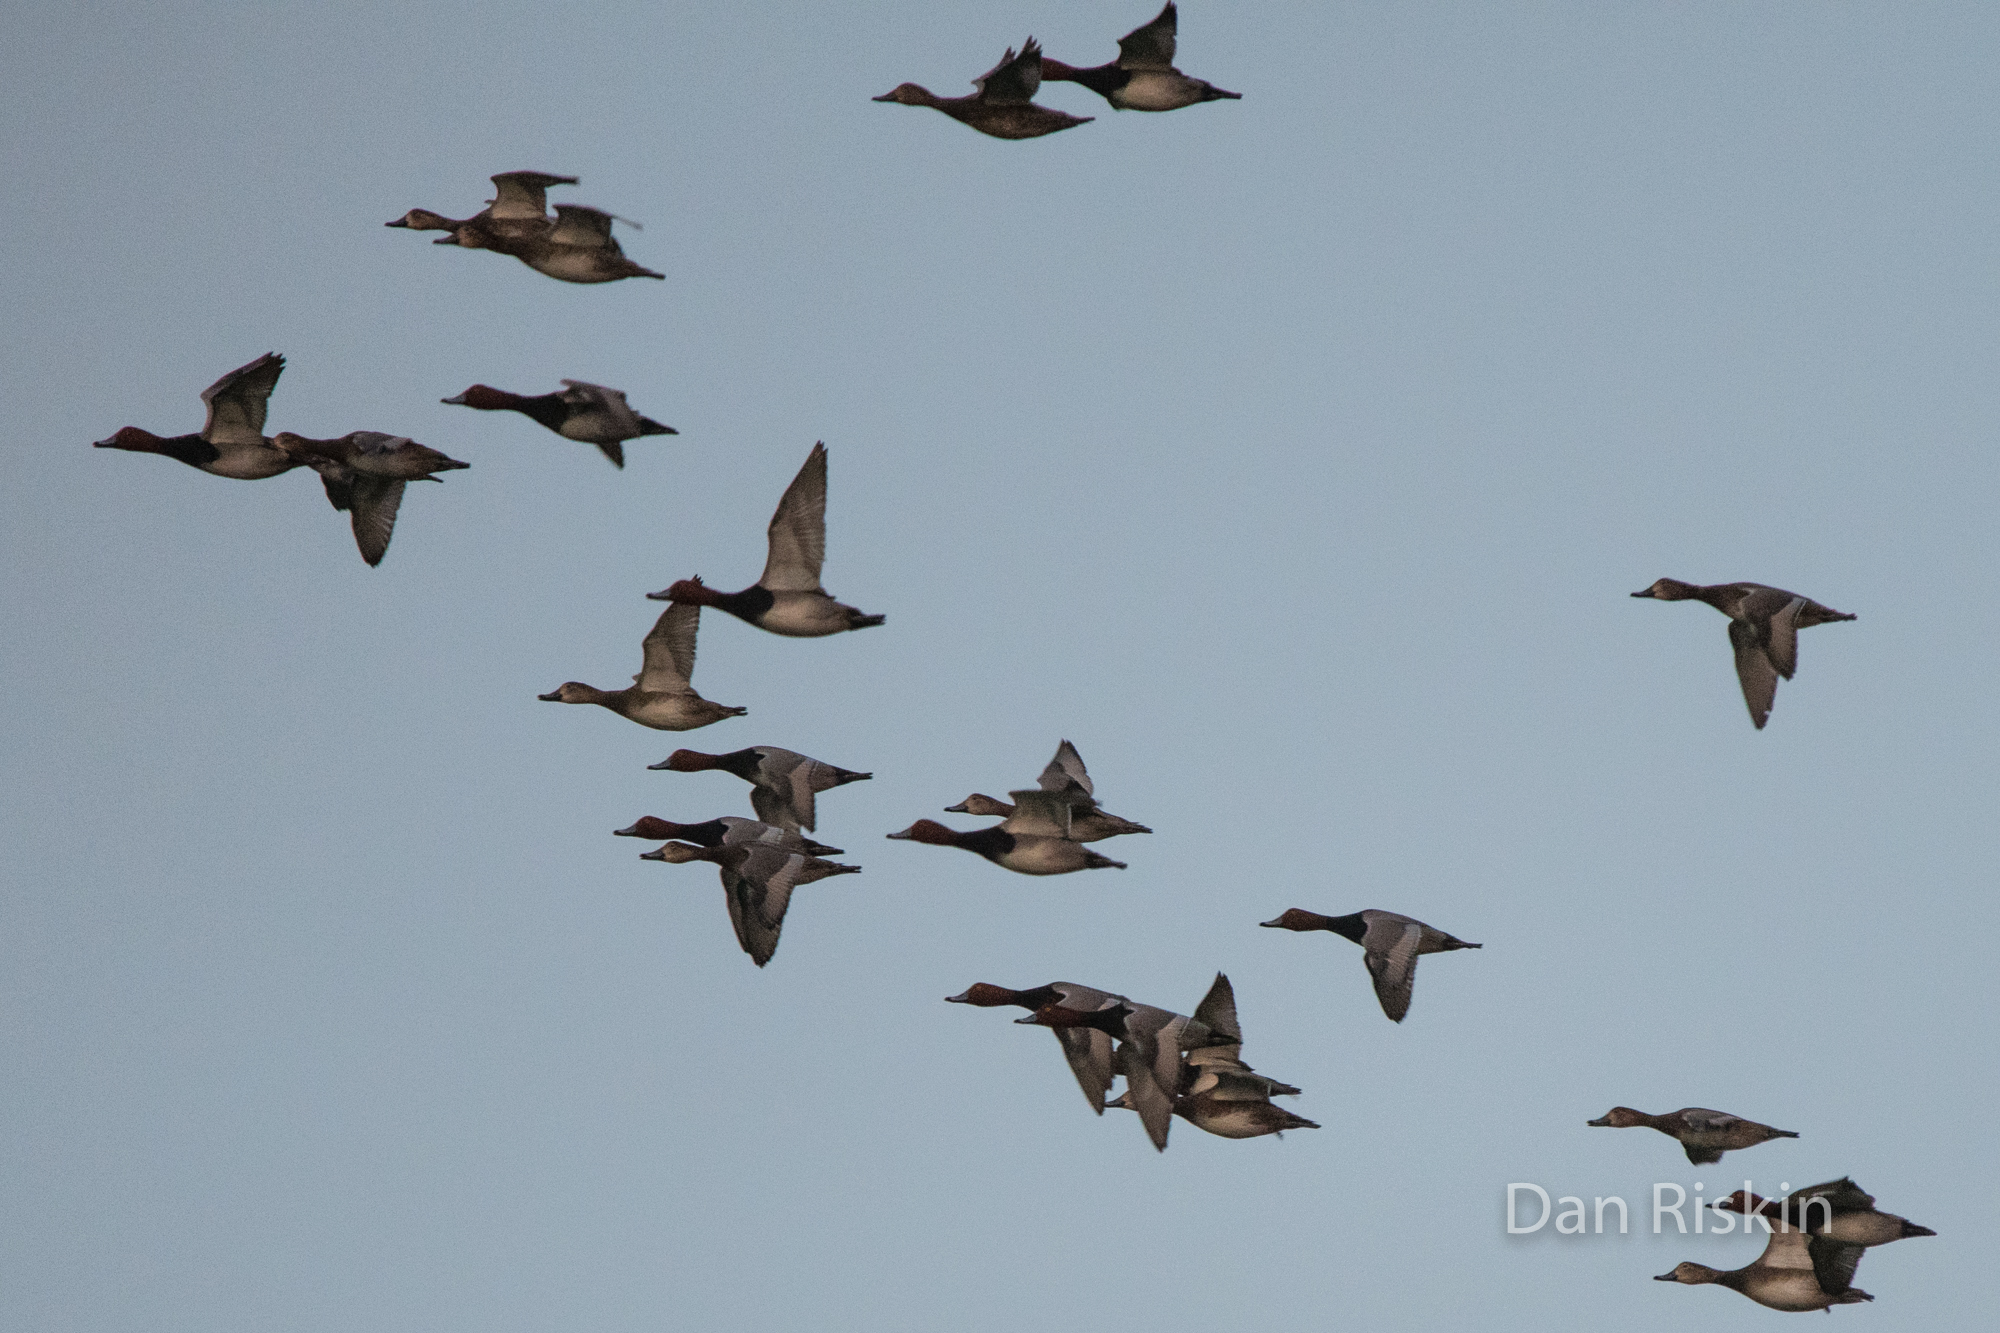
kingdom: Animalia
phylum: Chordata
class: Aves
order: Anseriformes
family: Anatidae
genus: Aythya
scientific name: Aythya americana
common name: Redhead
